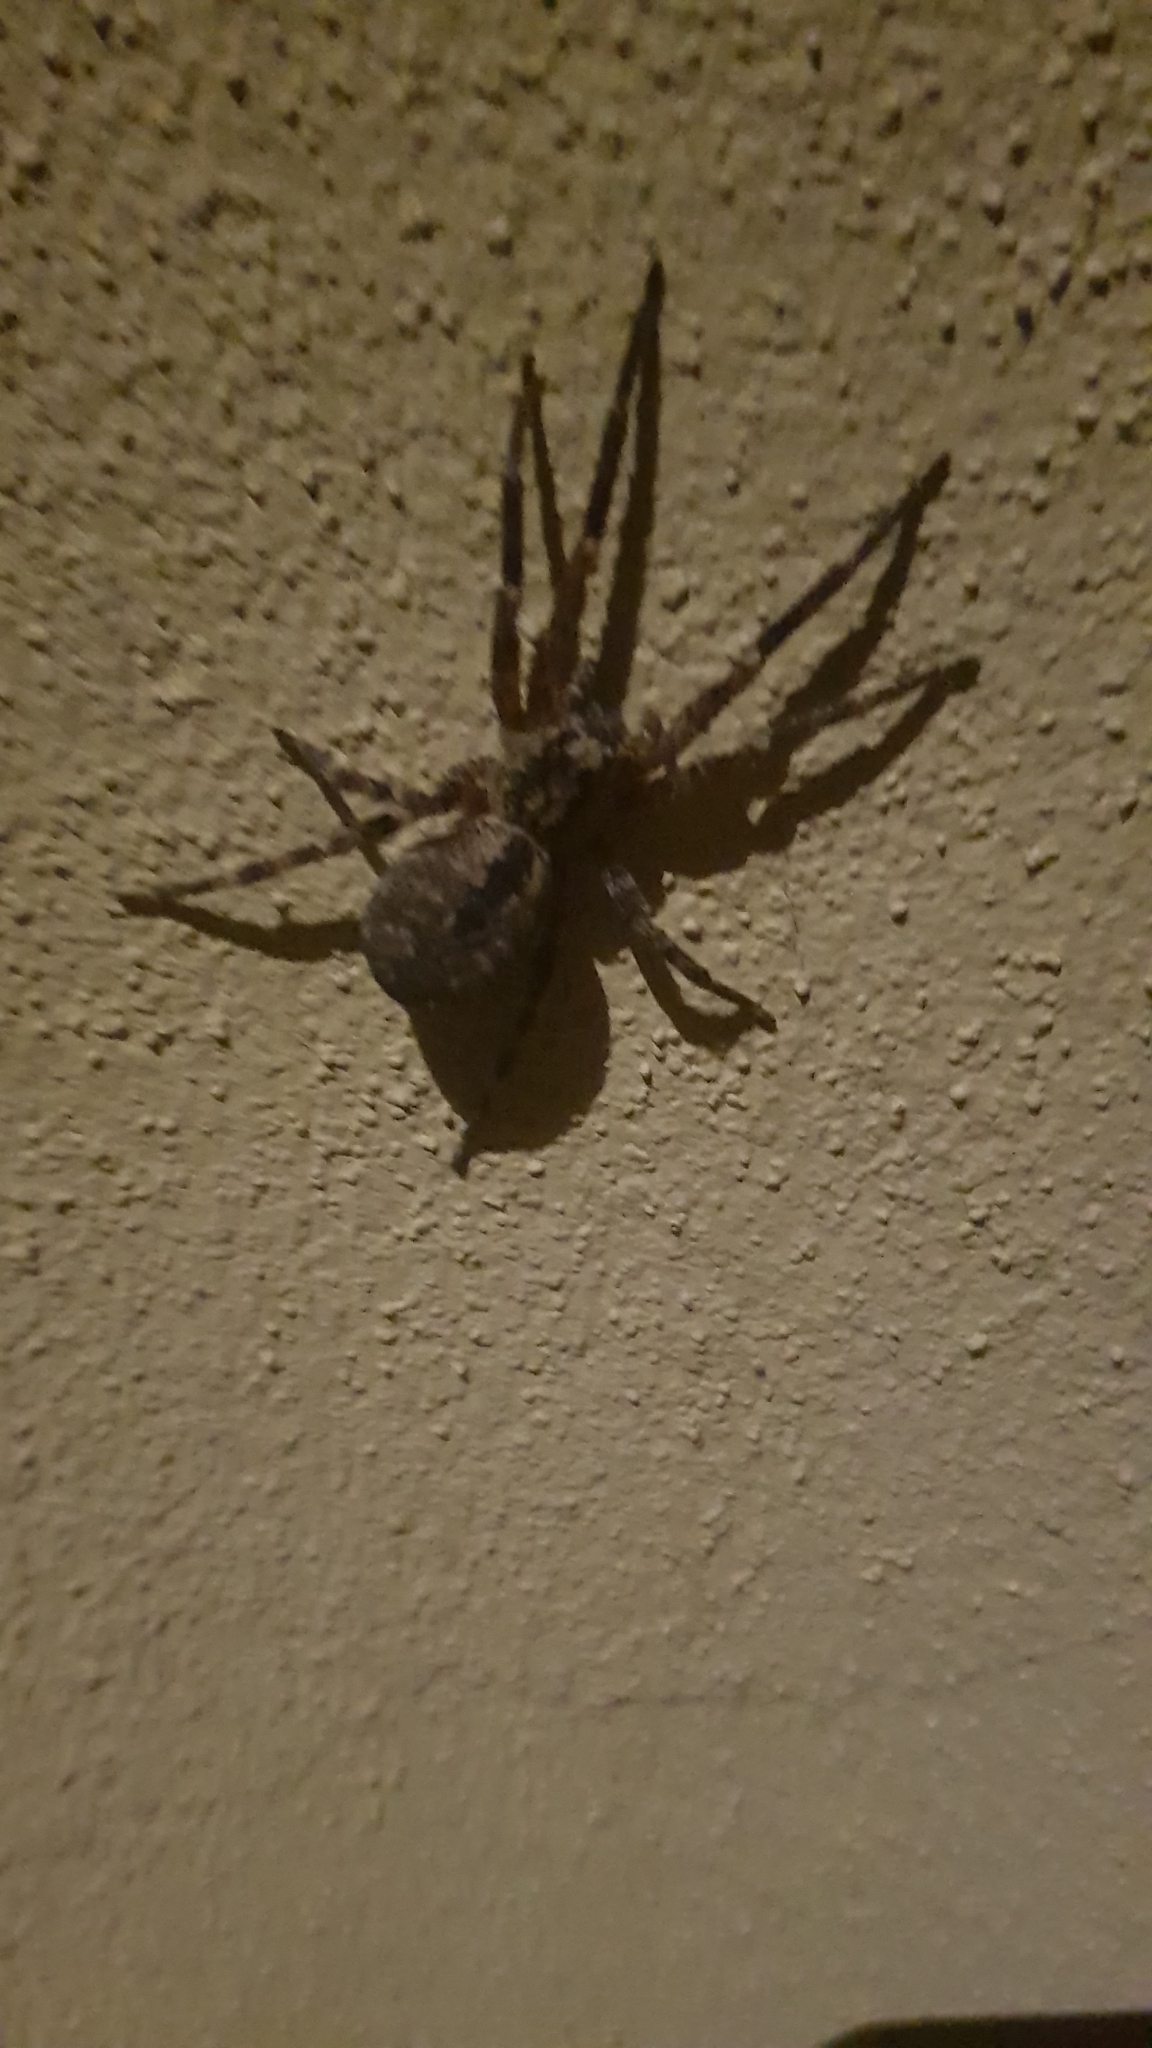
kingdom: Animalia
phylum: Arthropoda
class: Arachnida
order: Araneae
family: Zoropsidae
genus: Zoropsis
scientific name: Zoropsis spinimana
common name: Zoropsid spider
